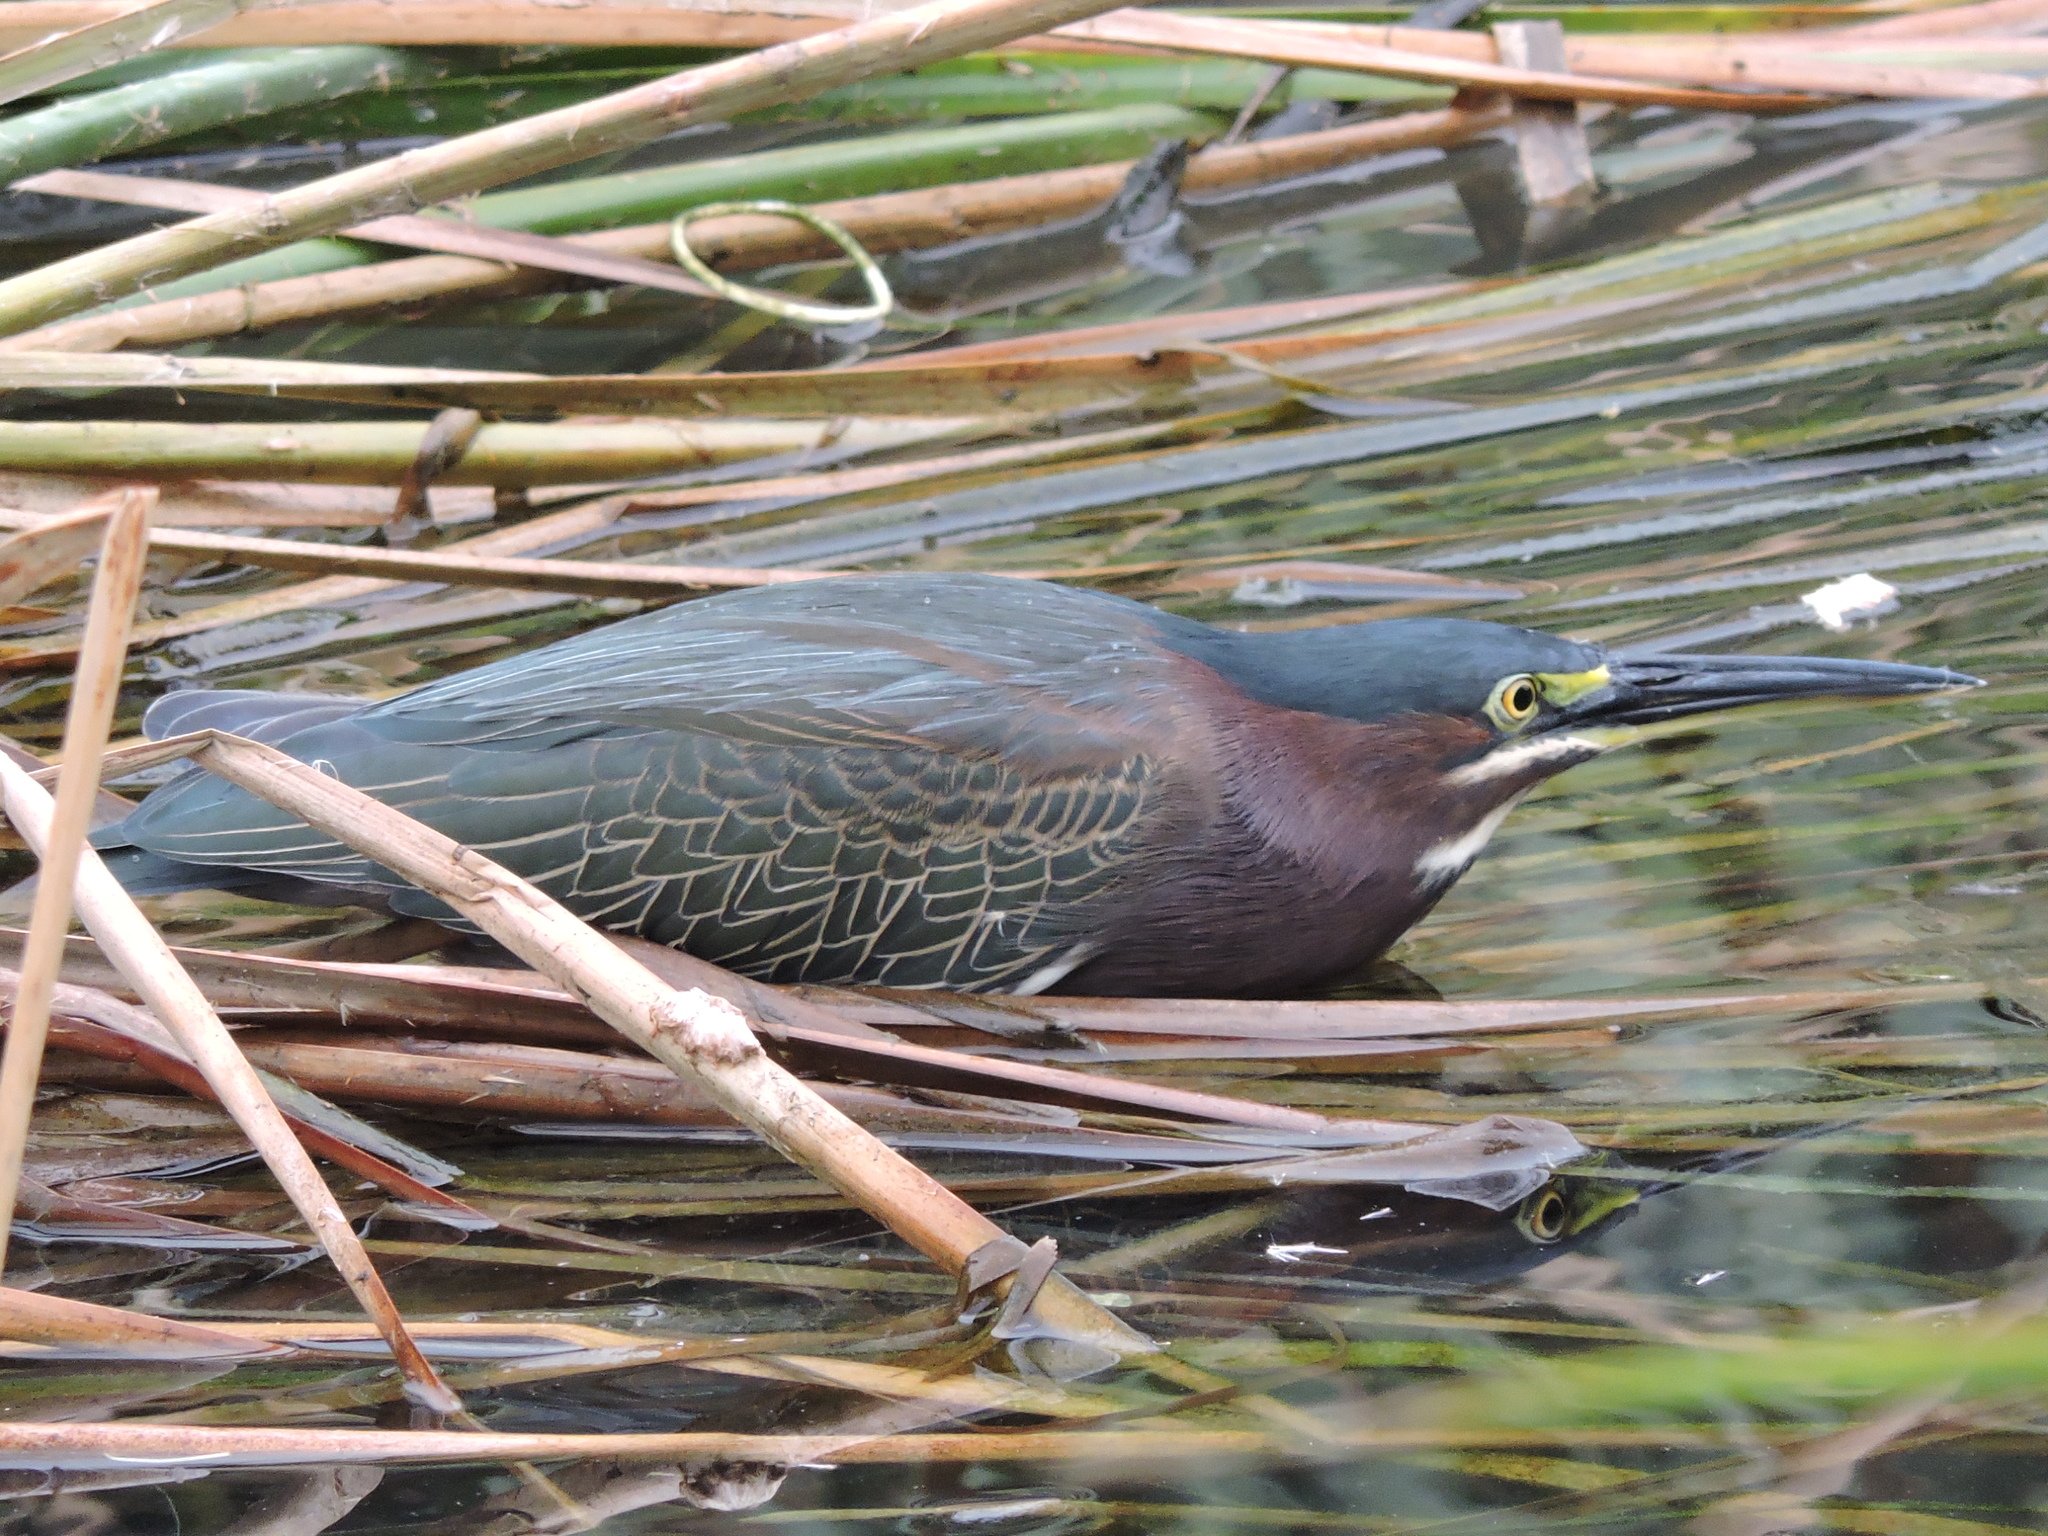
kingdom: Animalia
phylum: Chordata
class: Aves
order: Pelecaniformes
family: Ardeidae
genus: Butorides
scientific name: Butorides virescens
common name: Green heron
